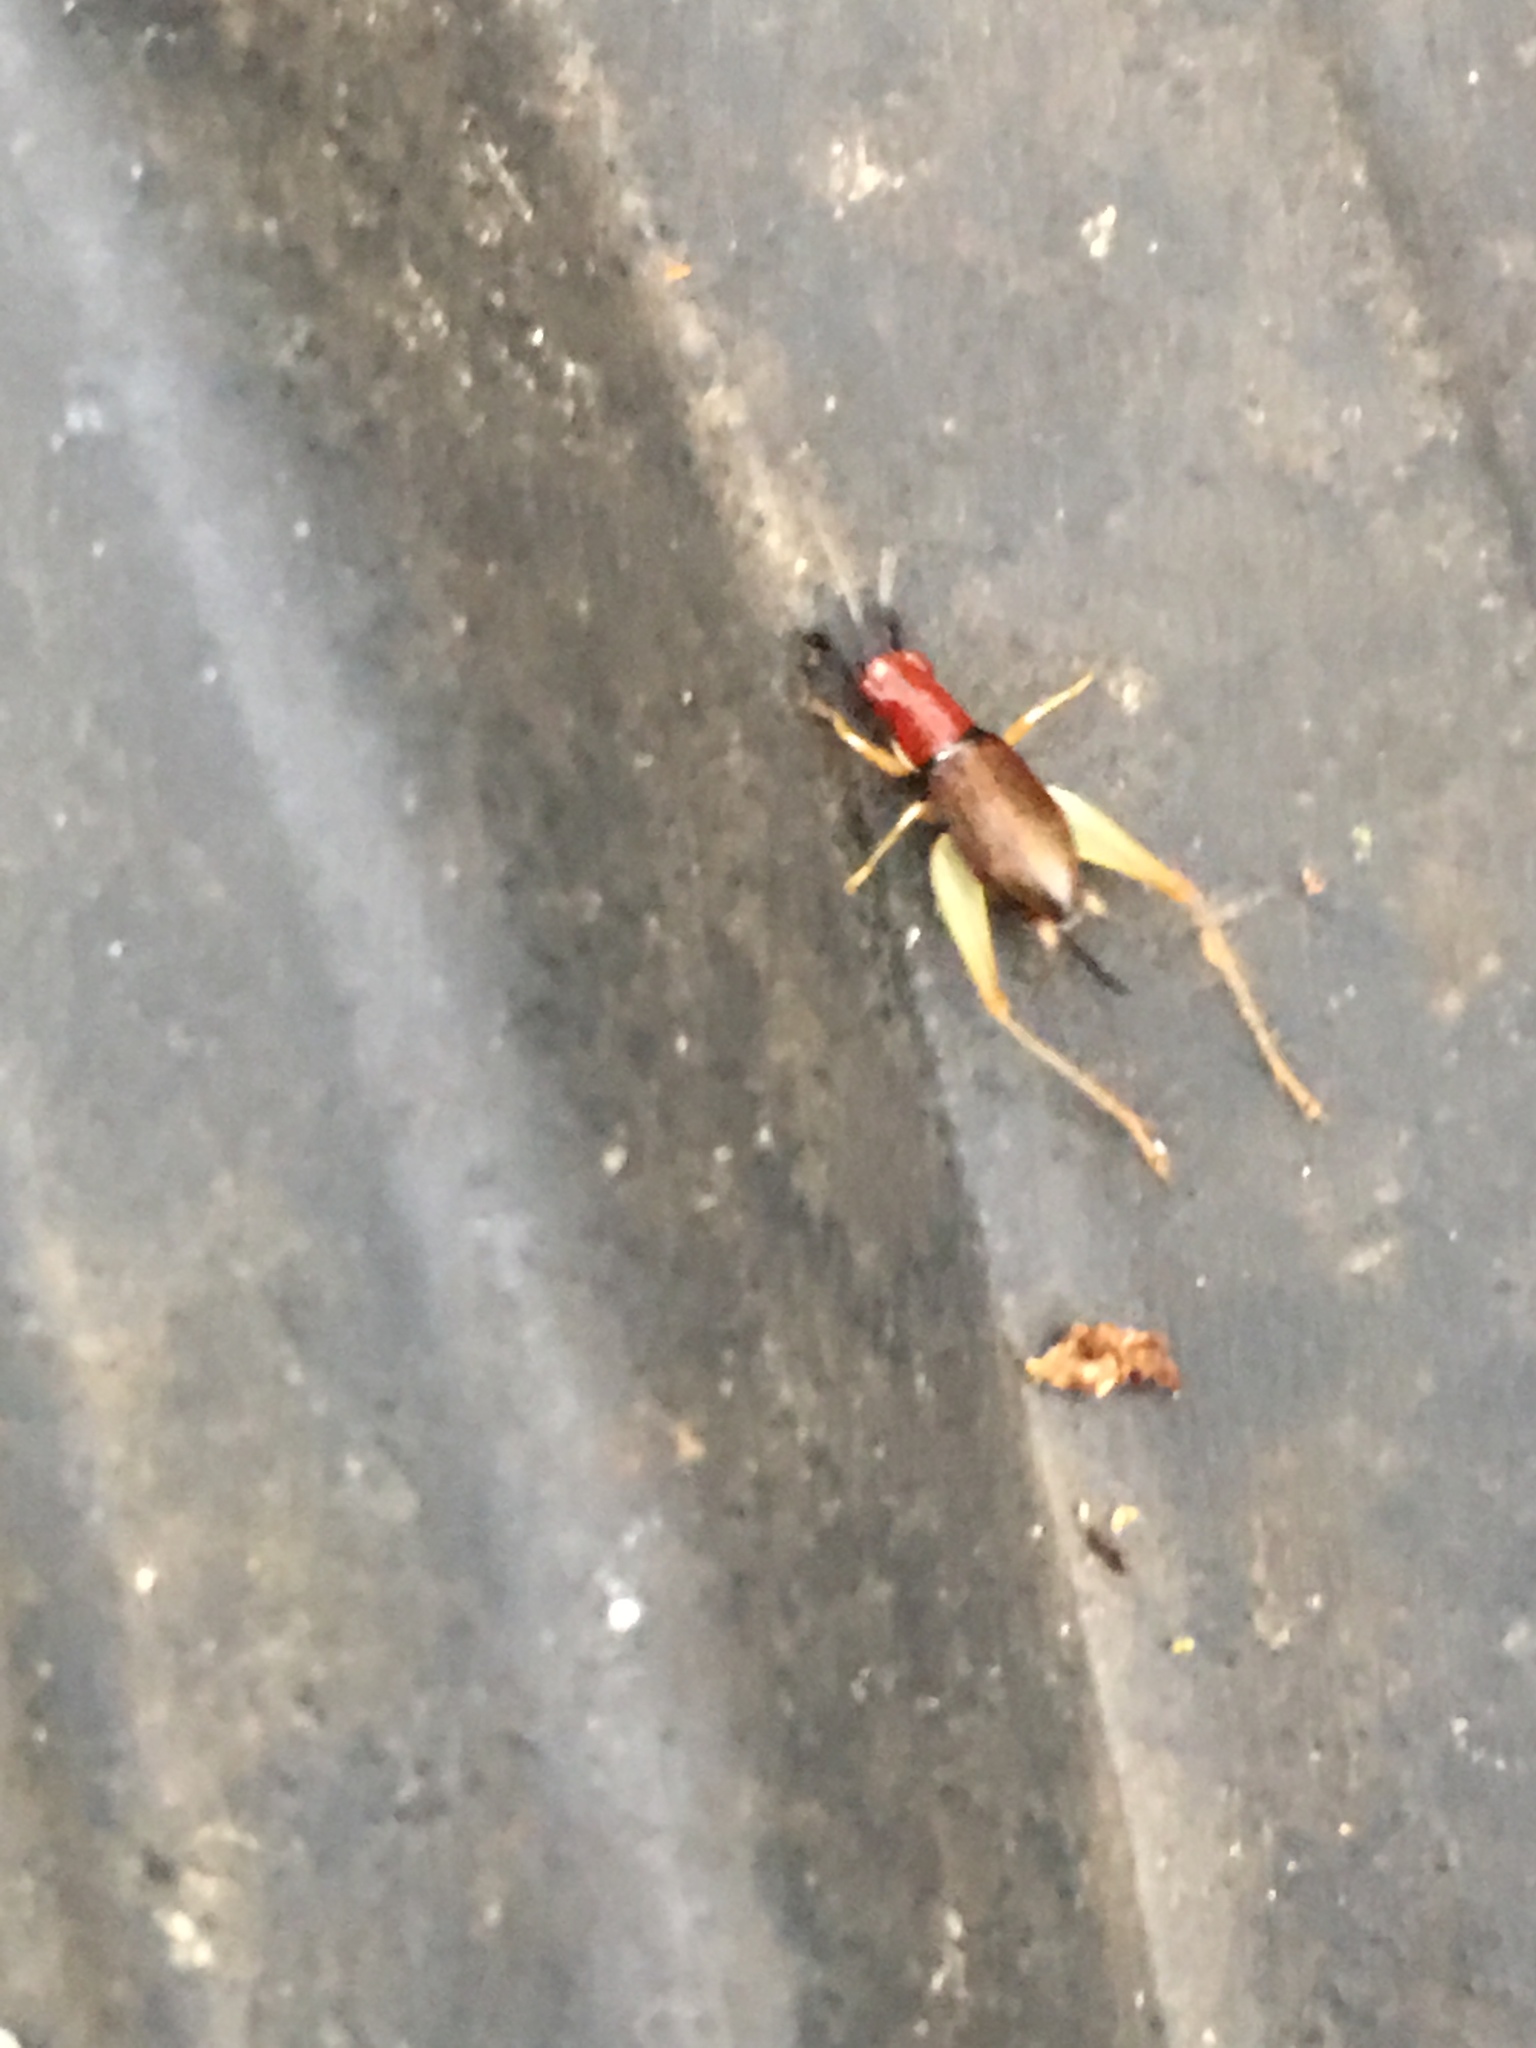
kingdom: Animalia
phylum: Arthropoda
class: Insecta
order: Orthoptera
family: Trigonidiidae
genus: Phyllopalpus
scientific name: Phyllopalpus pulchellus
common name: Handsome trig
